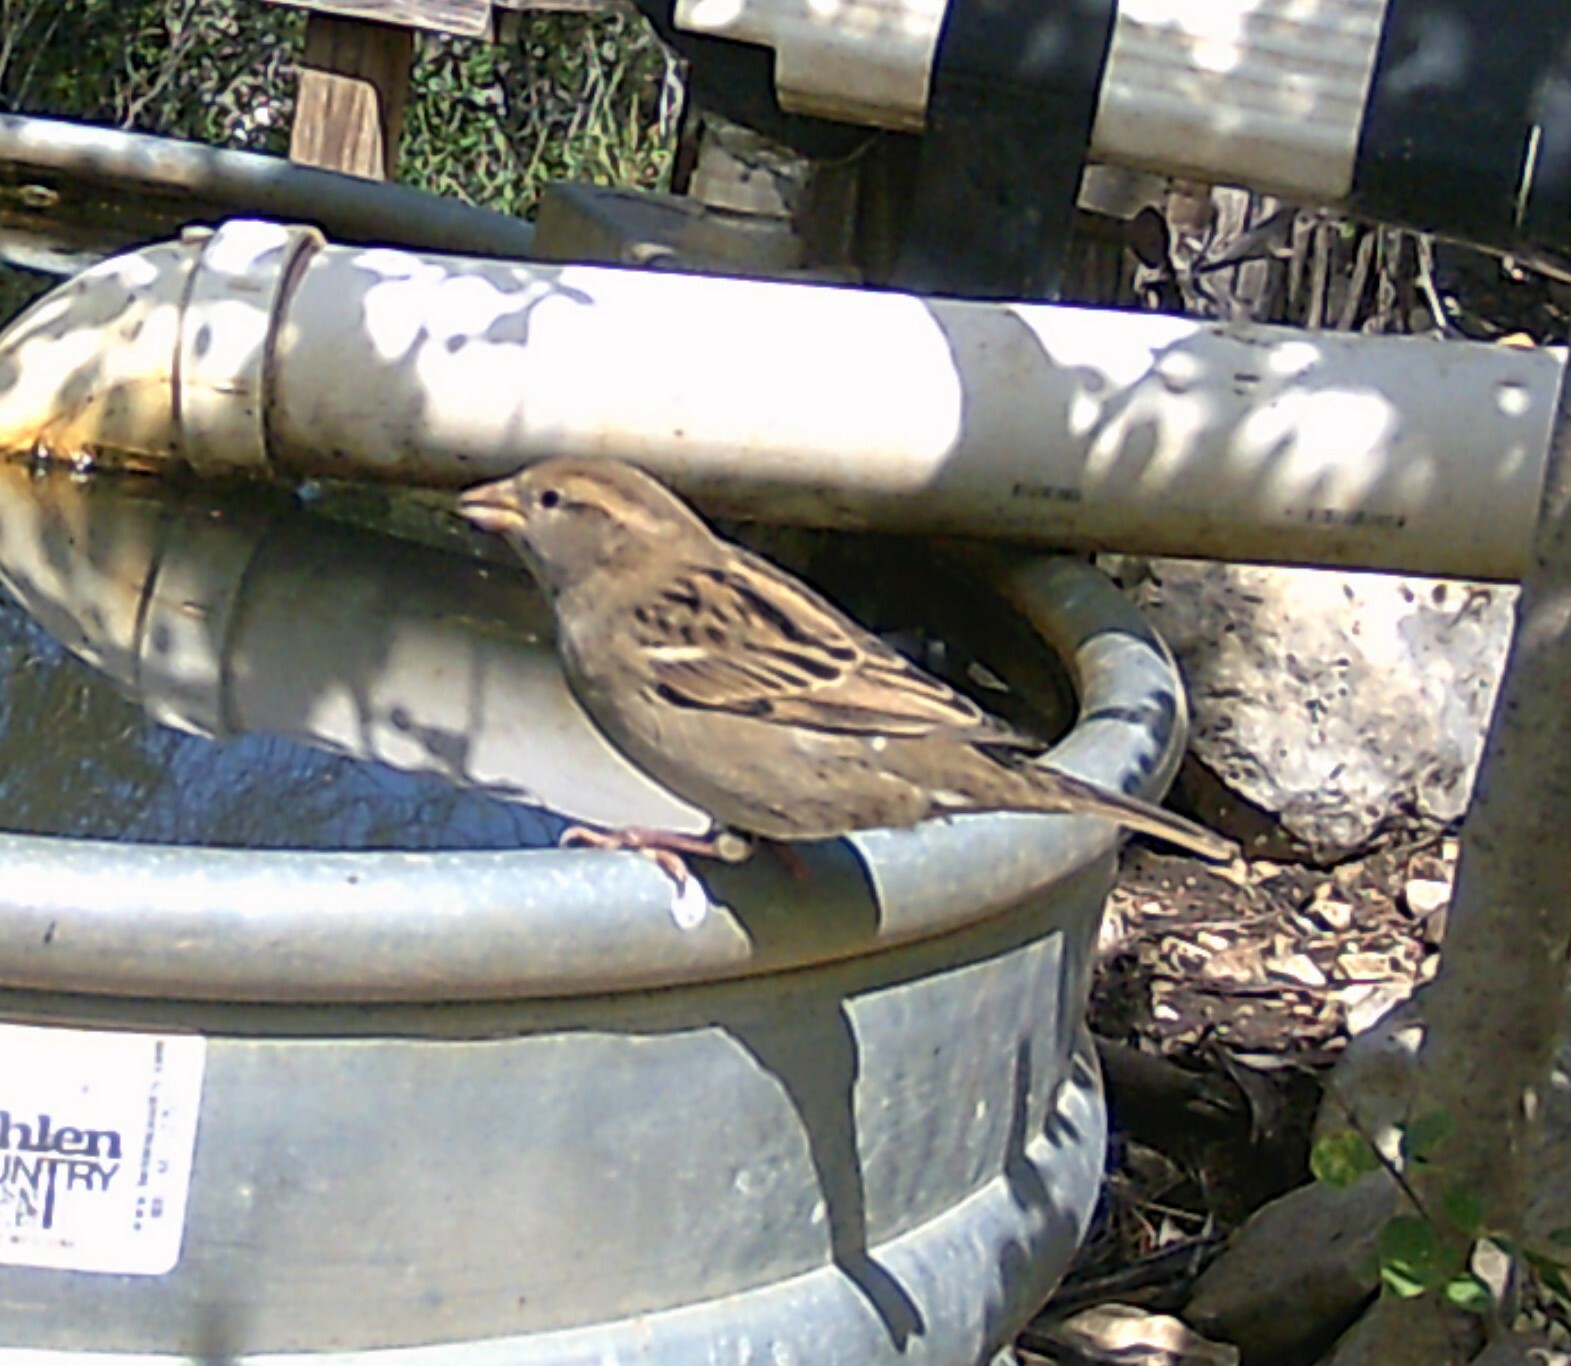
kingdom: Animalia
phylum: Chordata
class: Aves
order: Passeriformes
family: Passeridae
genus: Passer
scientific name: Passer domesticus
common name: House sparrow
